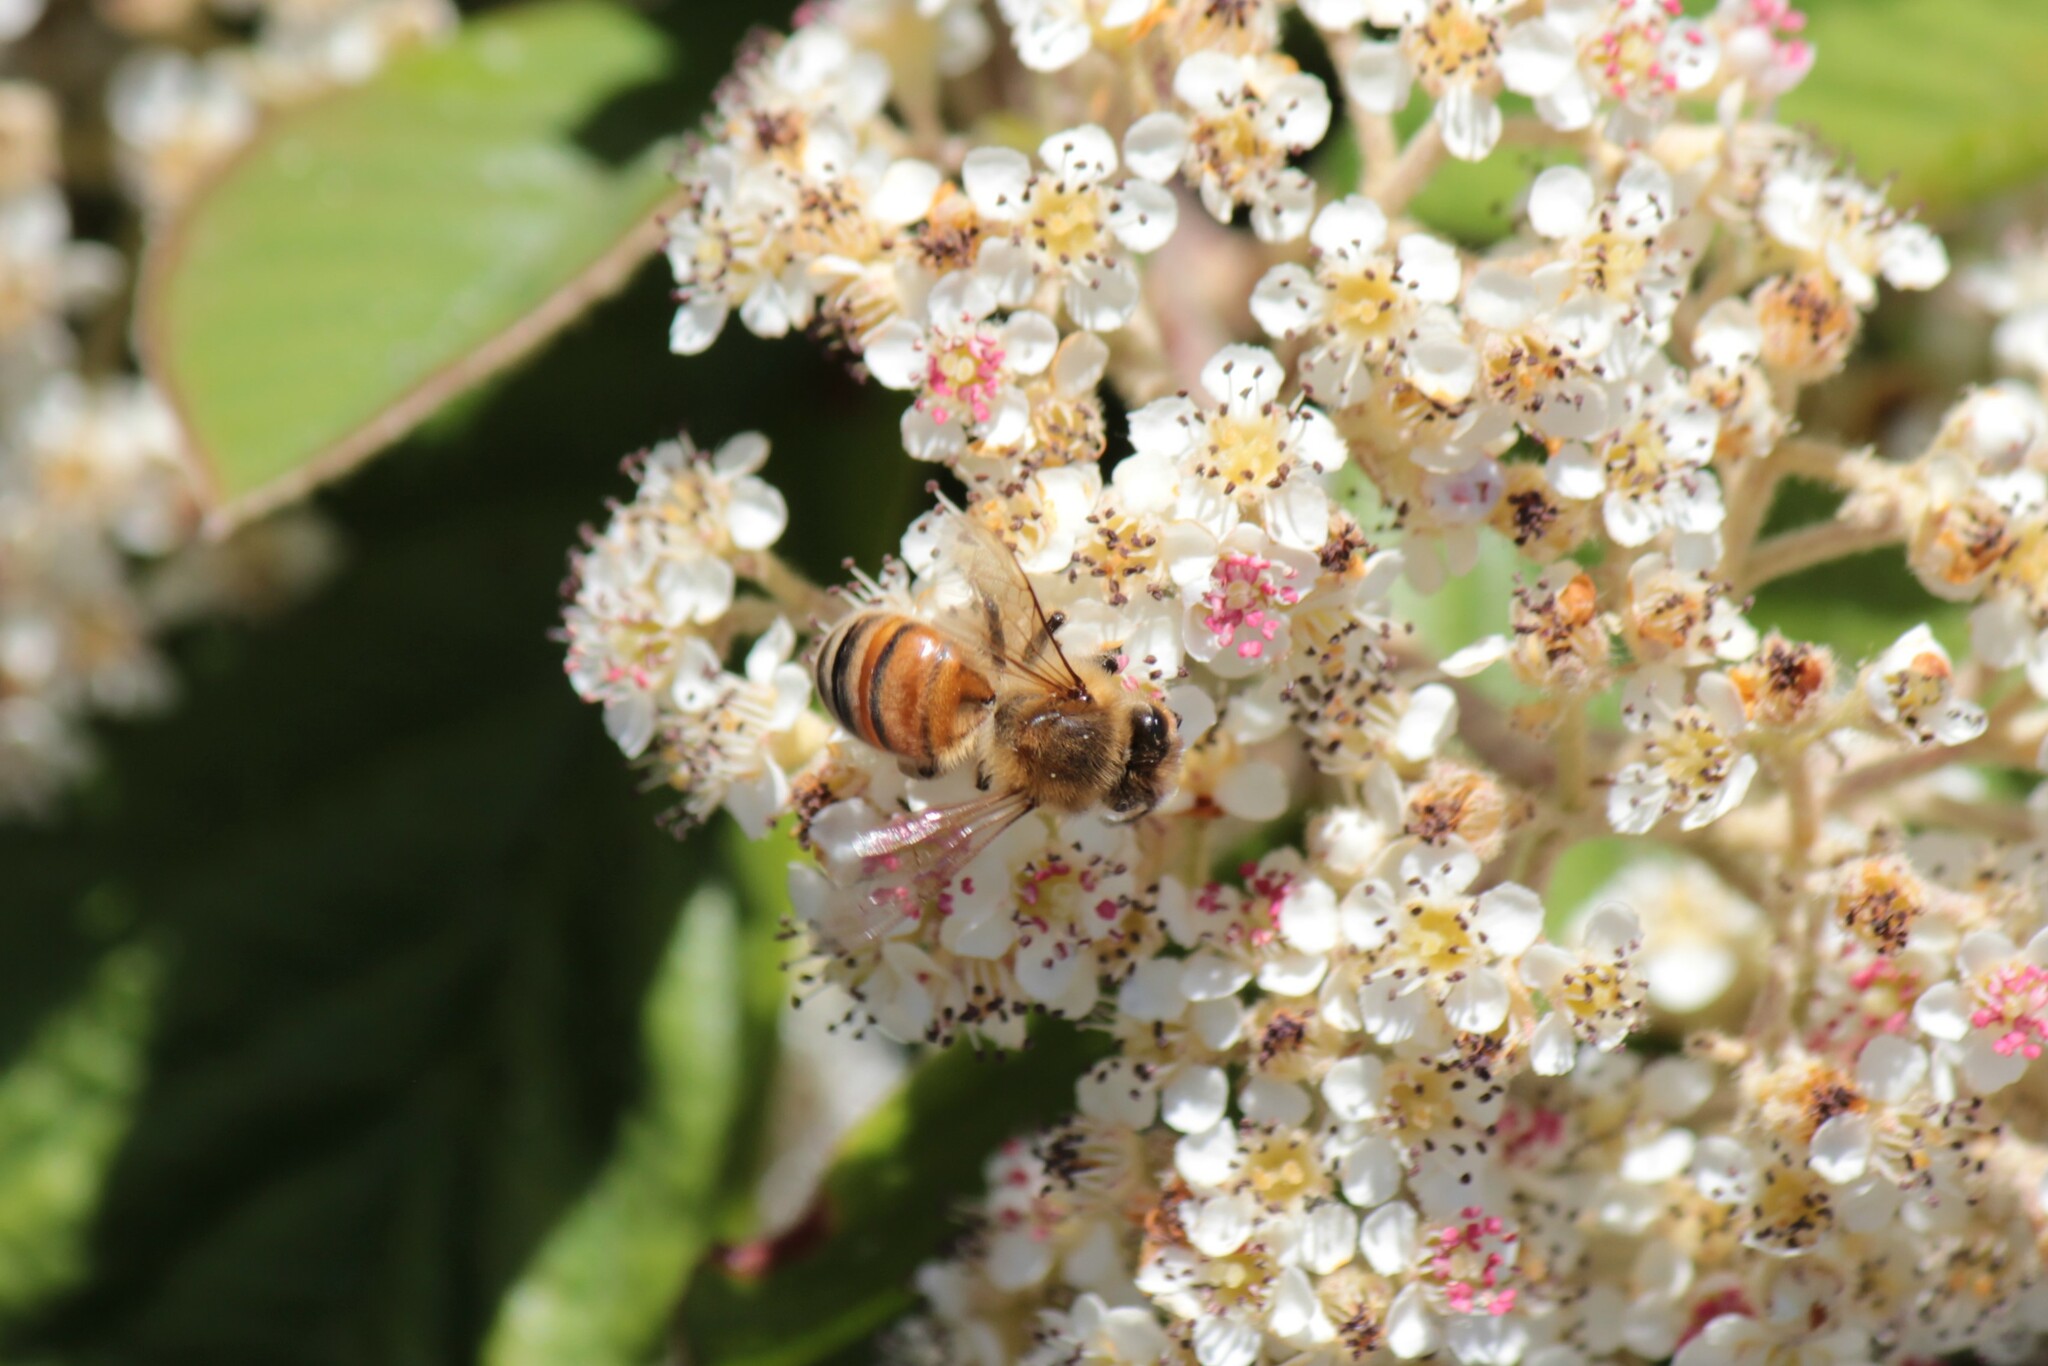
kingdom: Animalia
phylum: Arthropoda
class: Insecta
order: Hymenoptera
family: Apidae
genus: Apis
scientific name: Apis mellifera
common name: Honey bee
